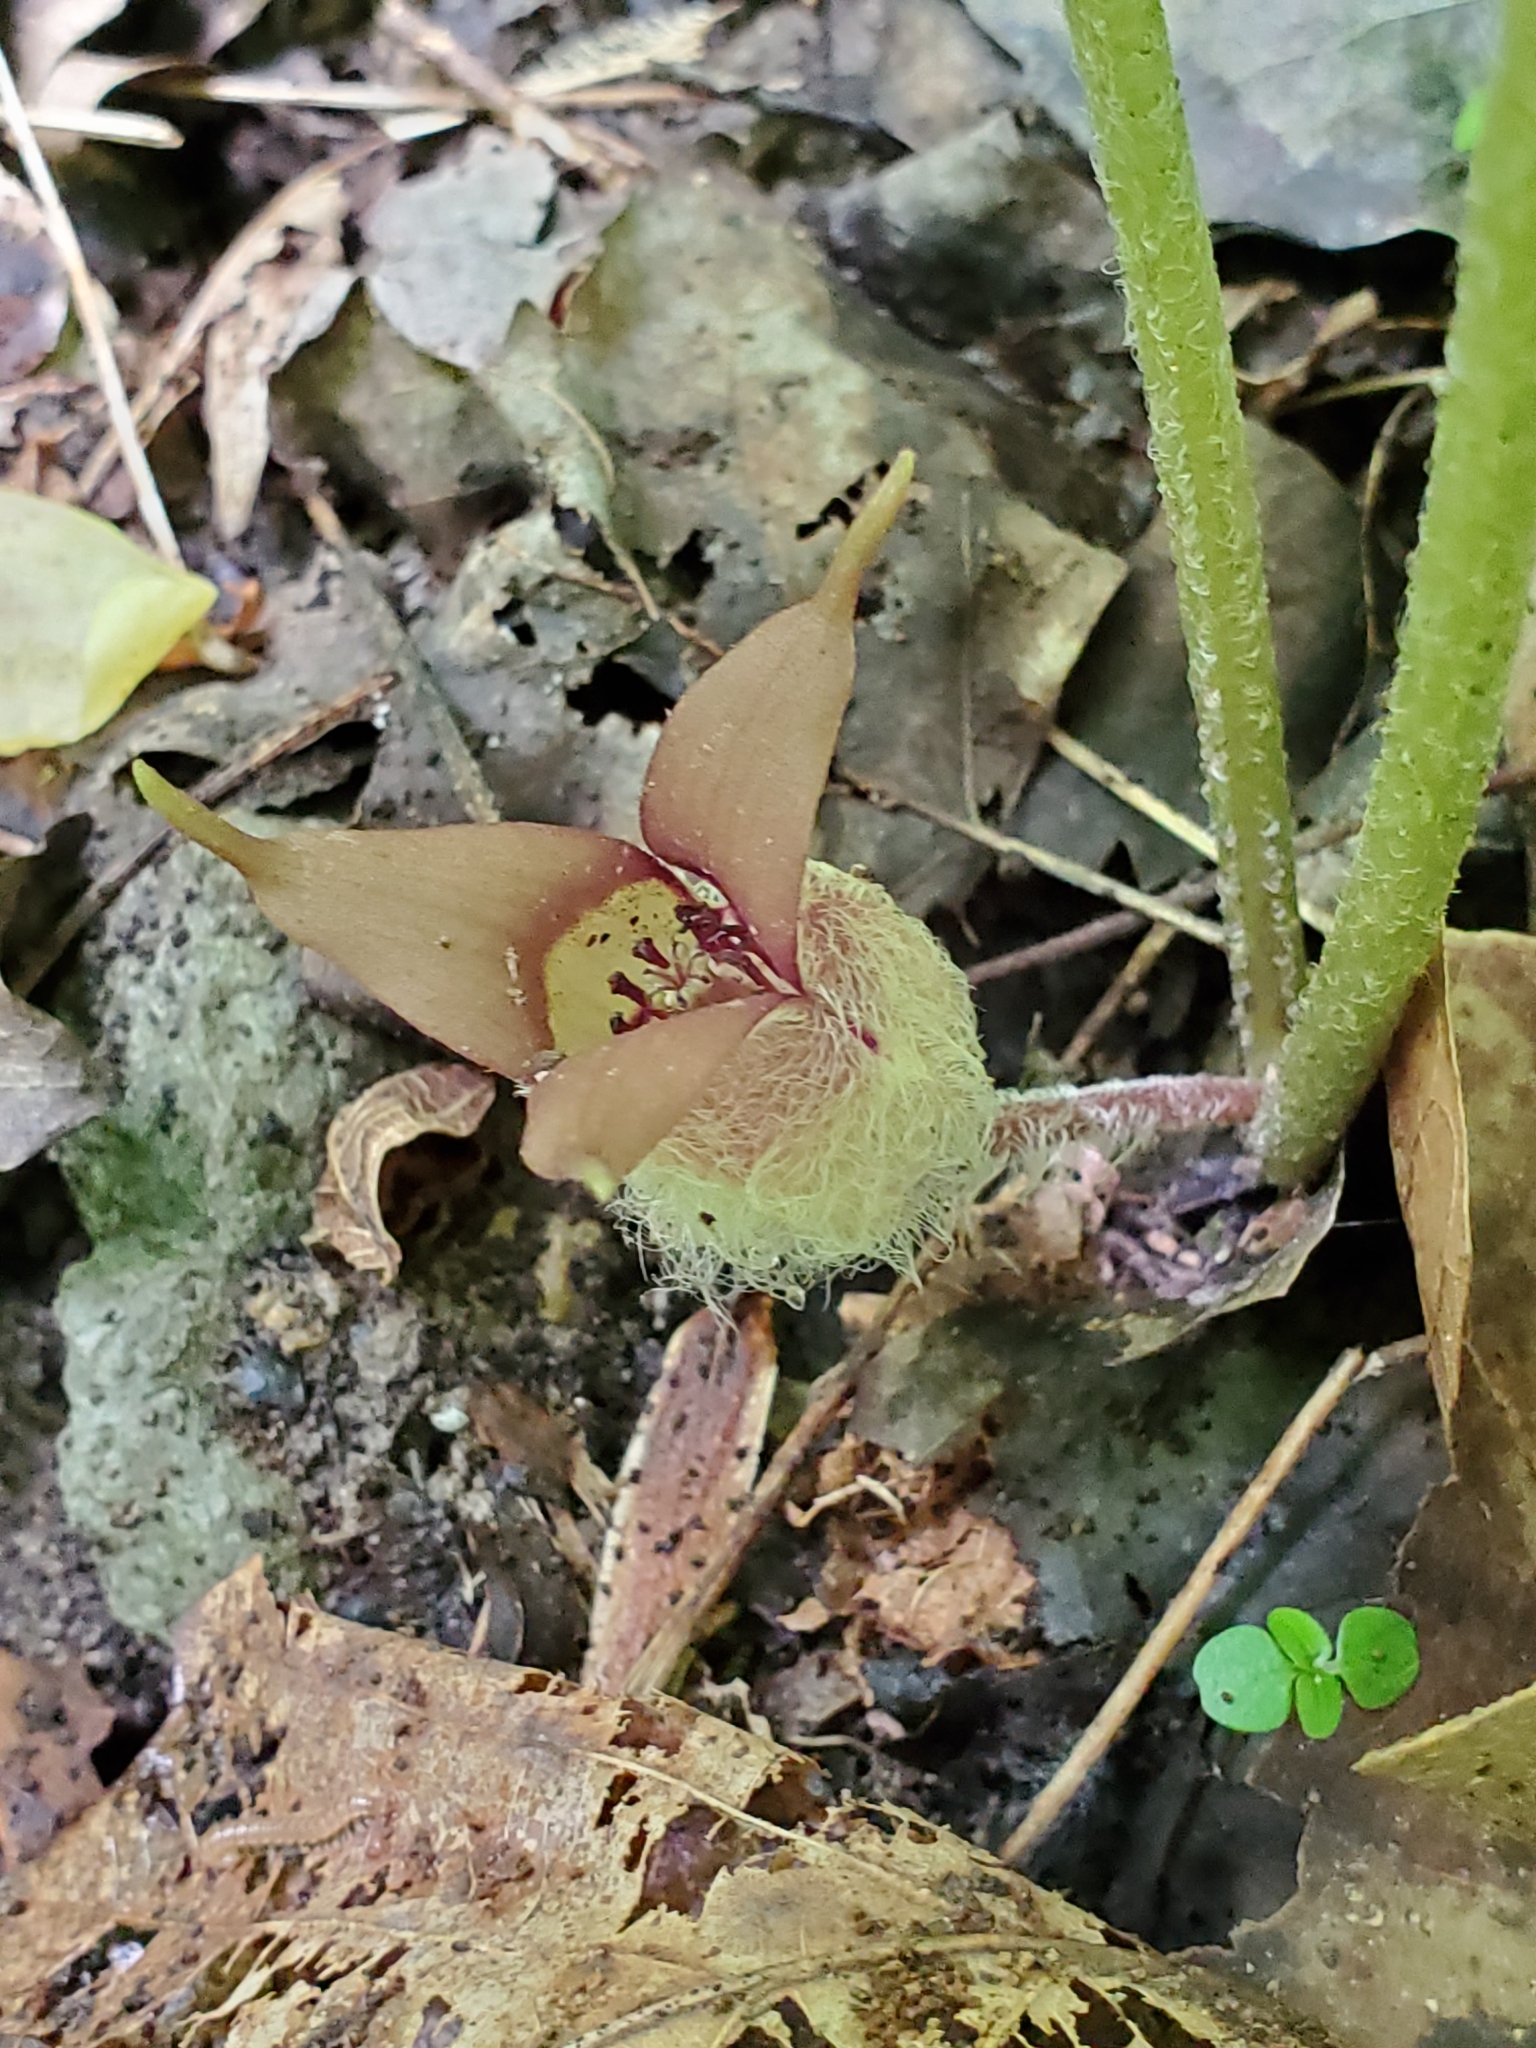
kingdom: Plantae
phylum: Tracheophyta
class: Magnoliopsida
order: Piperales
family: Aristolochiaceae
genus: Asarum
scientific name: Asarum canadense
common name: Wild ginger
